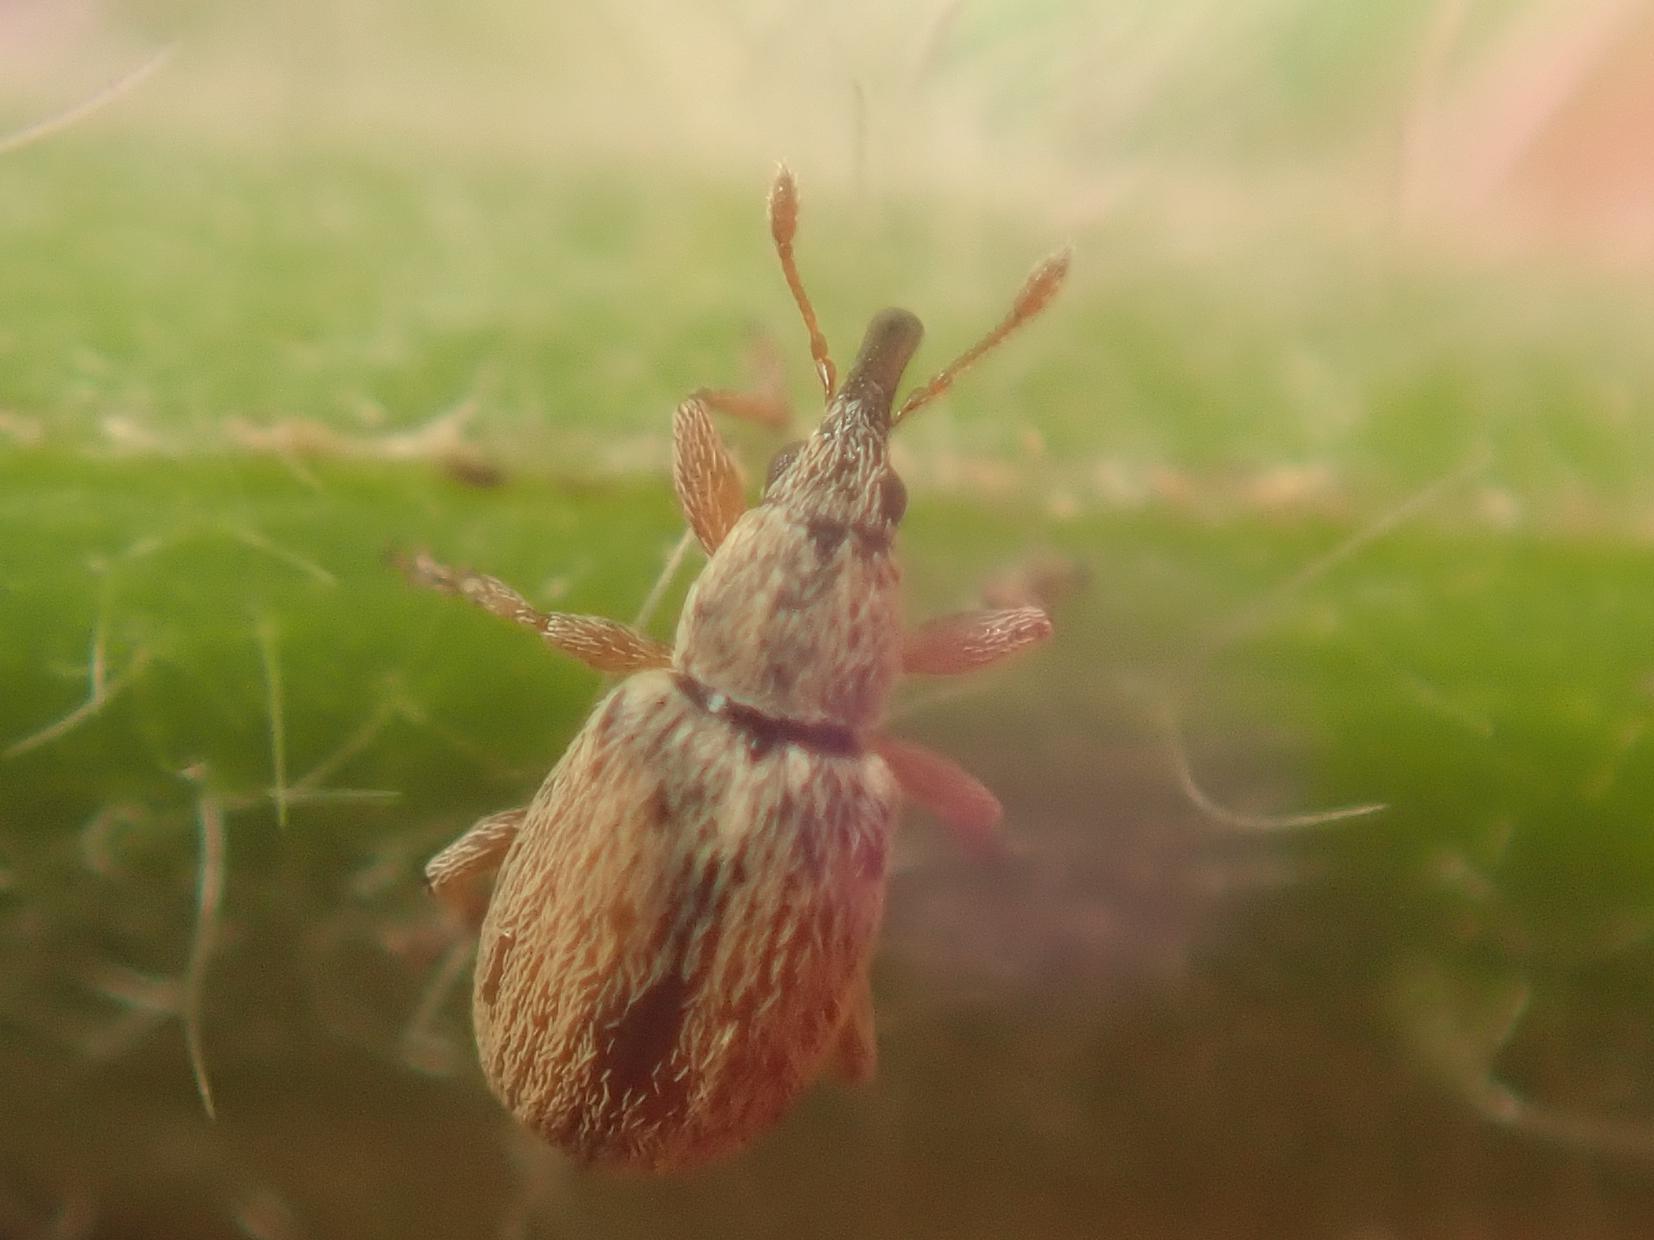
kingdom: Animalia
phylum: Arthropoda
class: Insecta
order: Coleoptera
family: Apionidae
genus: Malvapion
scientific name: Malvapion malvae
